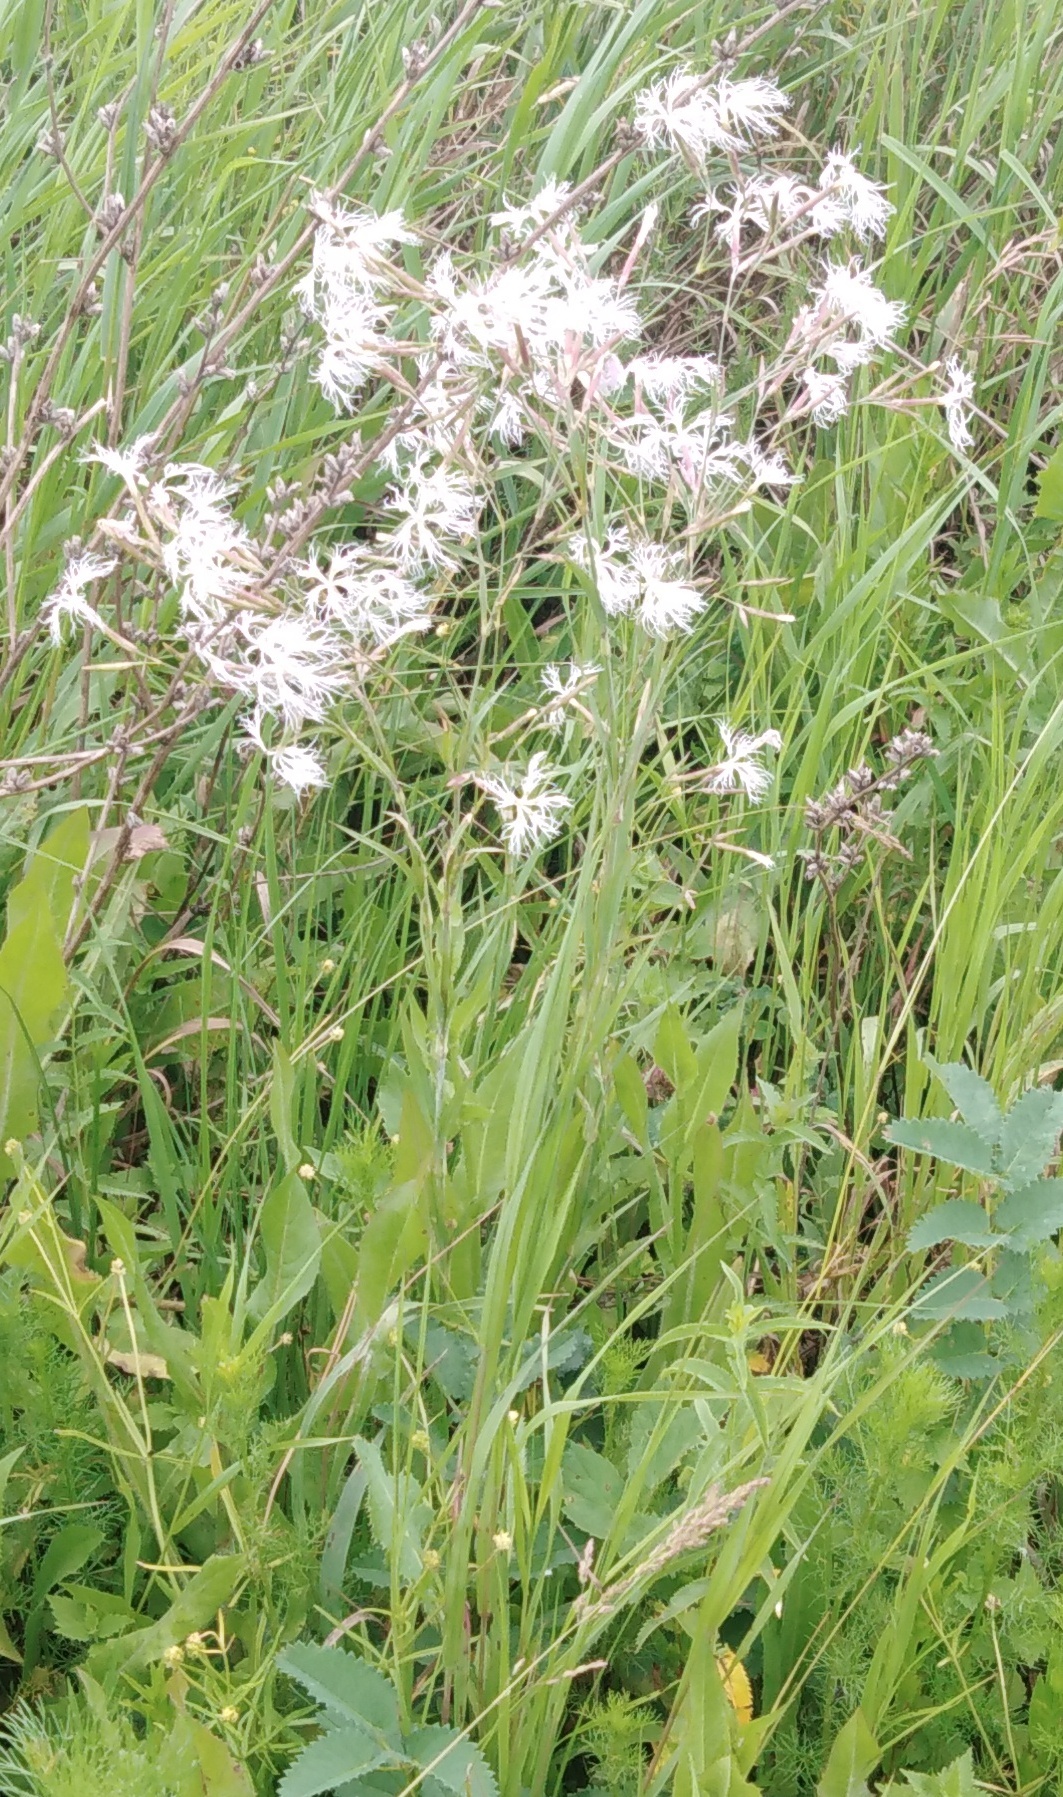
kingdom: Plantae
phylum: Tracheophyta
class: Magnoliopsida
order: Caryophyllales
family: Caryophyllaceae
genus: Dianthus
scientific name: Dianthus superbus
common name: Fringed pink
